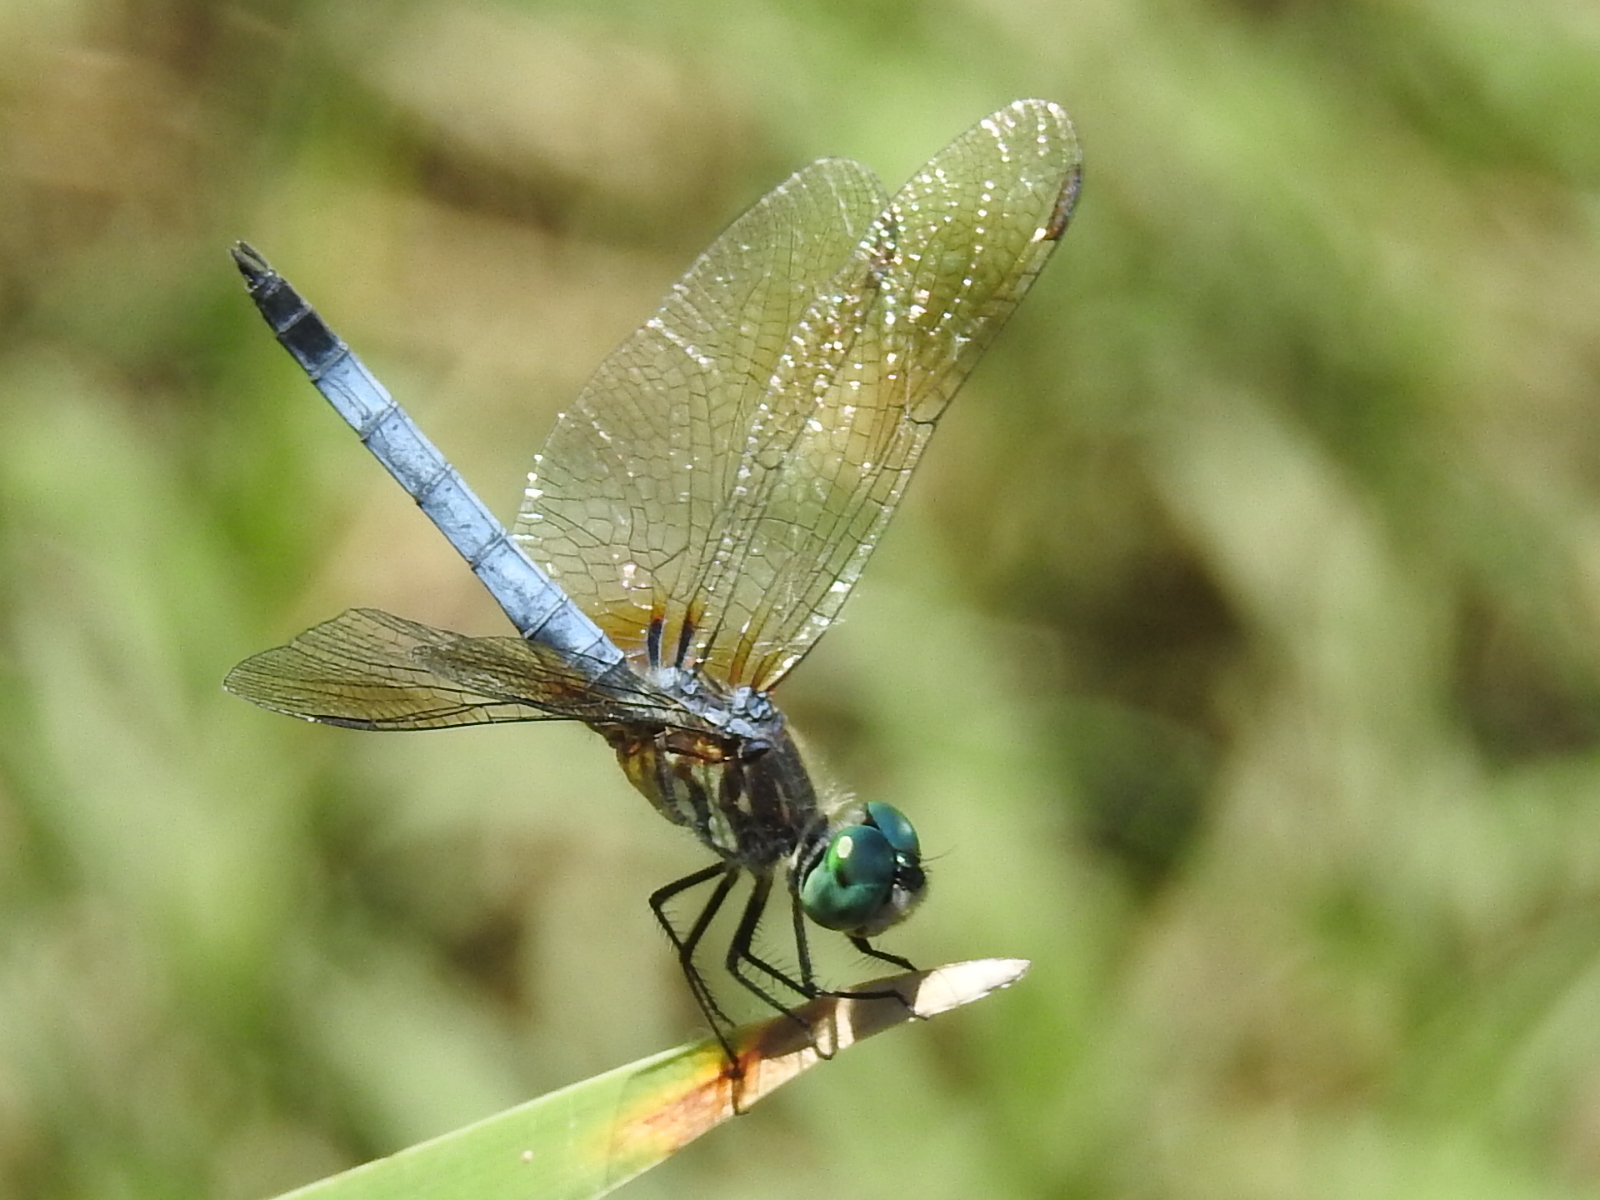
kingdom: Animalia
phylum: Arthropoda
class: Insecta
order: Odonata
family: Libellulidae
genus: Pachydiplax
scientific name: Pachydiplax longipennis
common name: Blue dasher
